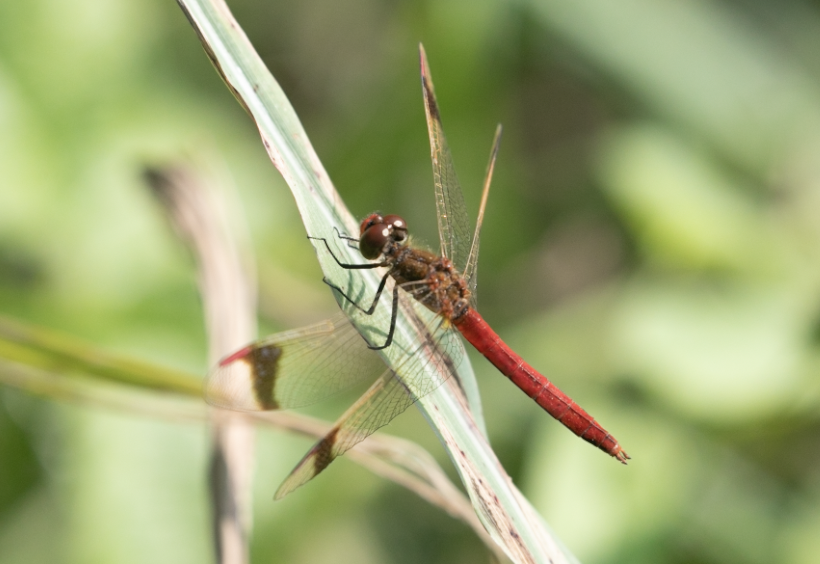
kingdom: Animalia
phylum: Arthropoda
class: Insecta
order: Odonata
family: Libellulidae
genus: Sympetrum
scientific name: Sympetrum pedemontanum
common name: Banded darter
